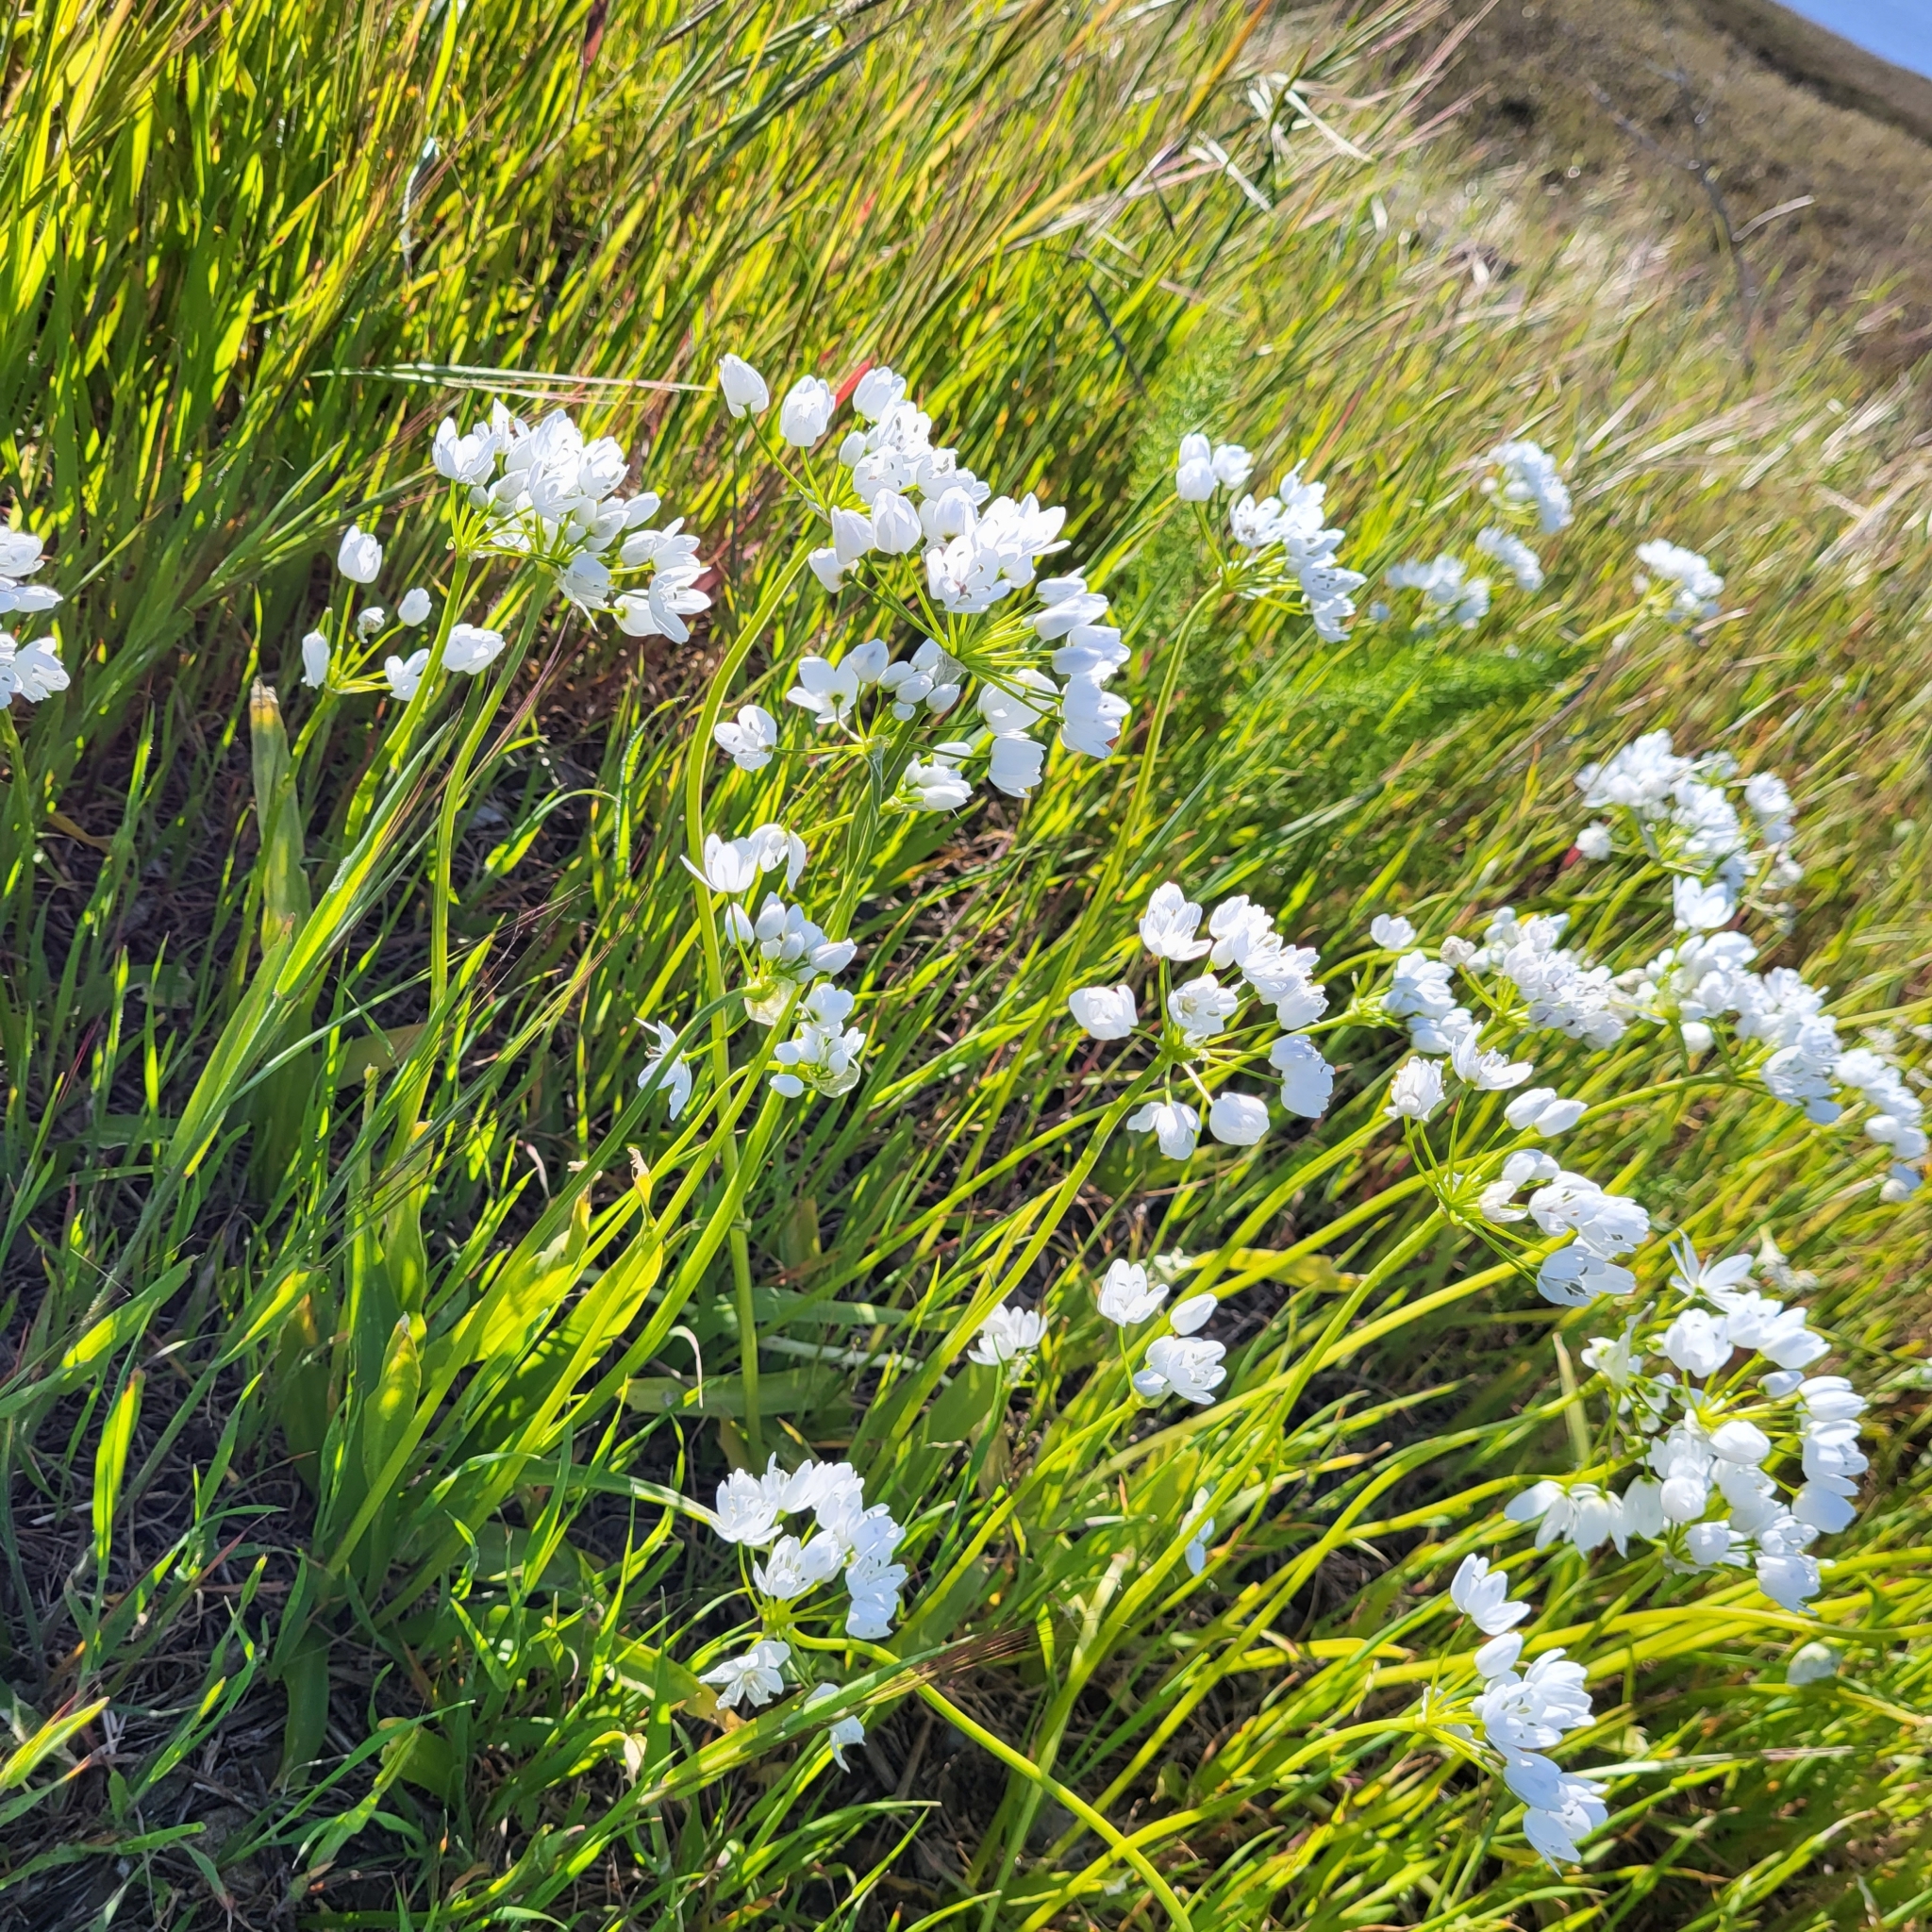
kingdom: Plantae
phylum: Tracheophyta
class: Liliopsida
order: Asparagales
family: Amaryllidaceae
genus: Allium
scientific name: Allium neapolitanum
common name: Neapolitan garlic
